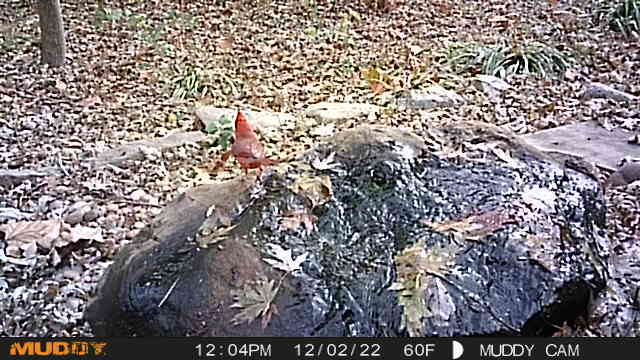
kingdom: Animalia
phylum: Chordata
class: Aves
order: Passeriformes
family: Cardinalidae
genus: Cardinalis
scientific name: Cardinalis cardinalis
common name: Northern cardinal
